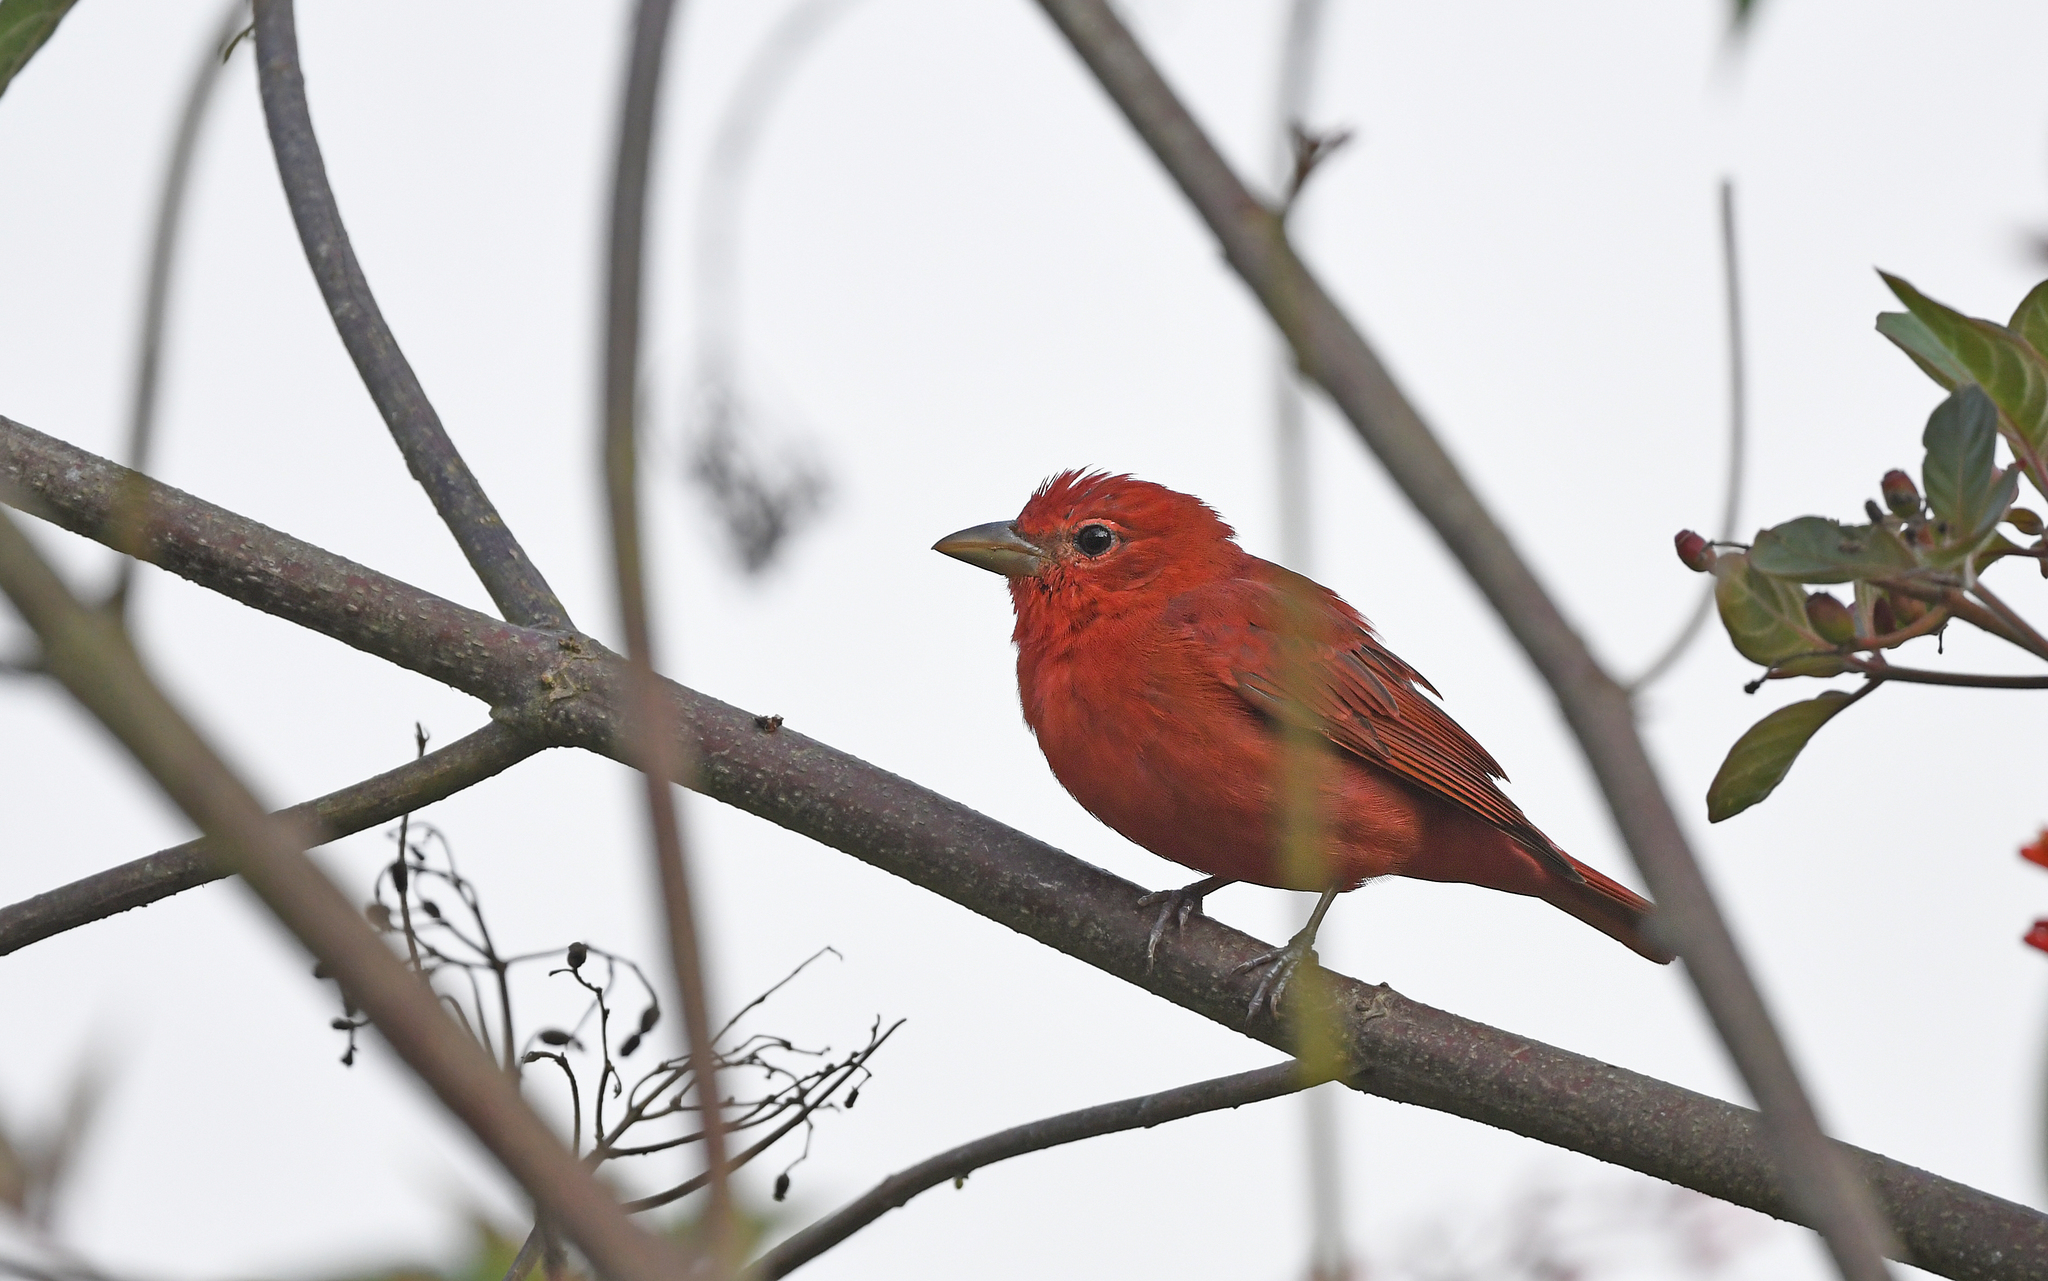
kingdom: Animalia
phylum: Chordata
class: Aves
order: Passeriformes
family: Cardinalidae
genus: Piranga
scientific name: Piranga rubra
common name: Summer tanager
